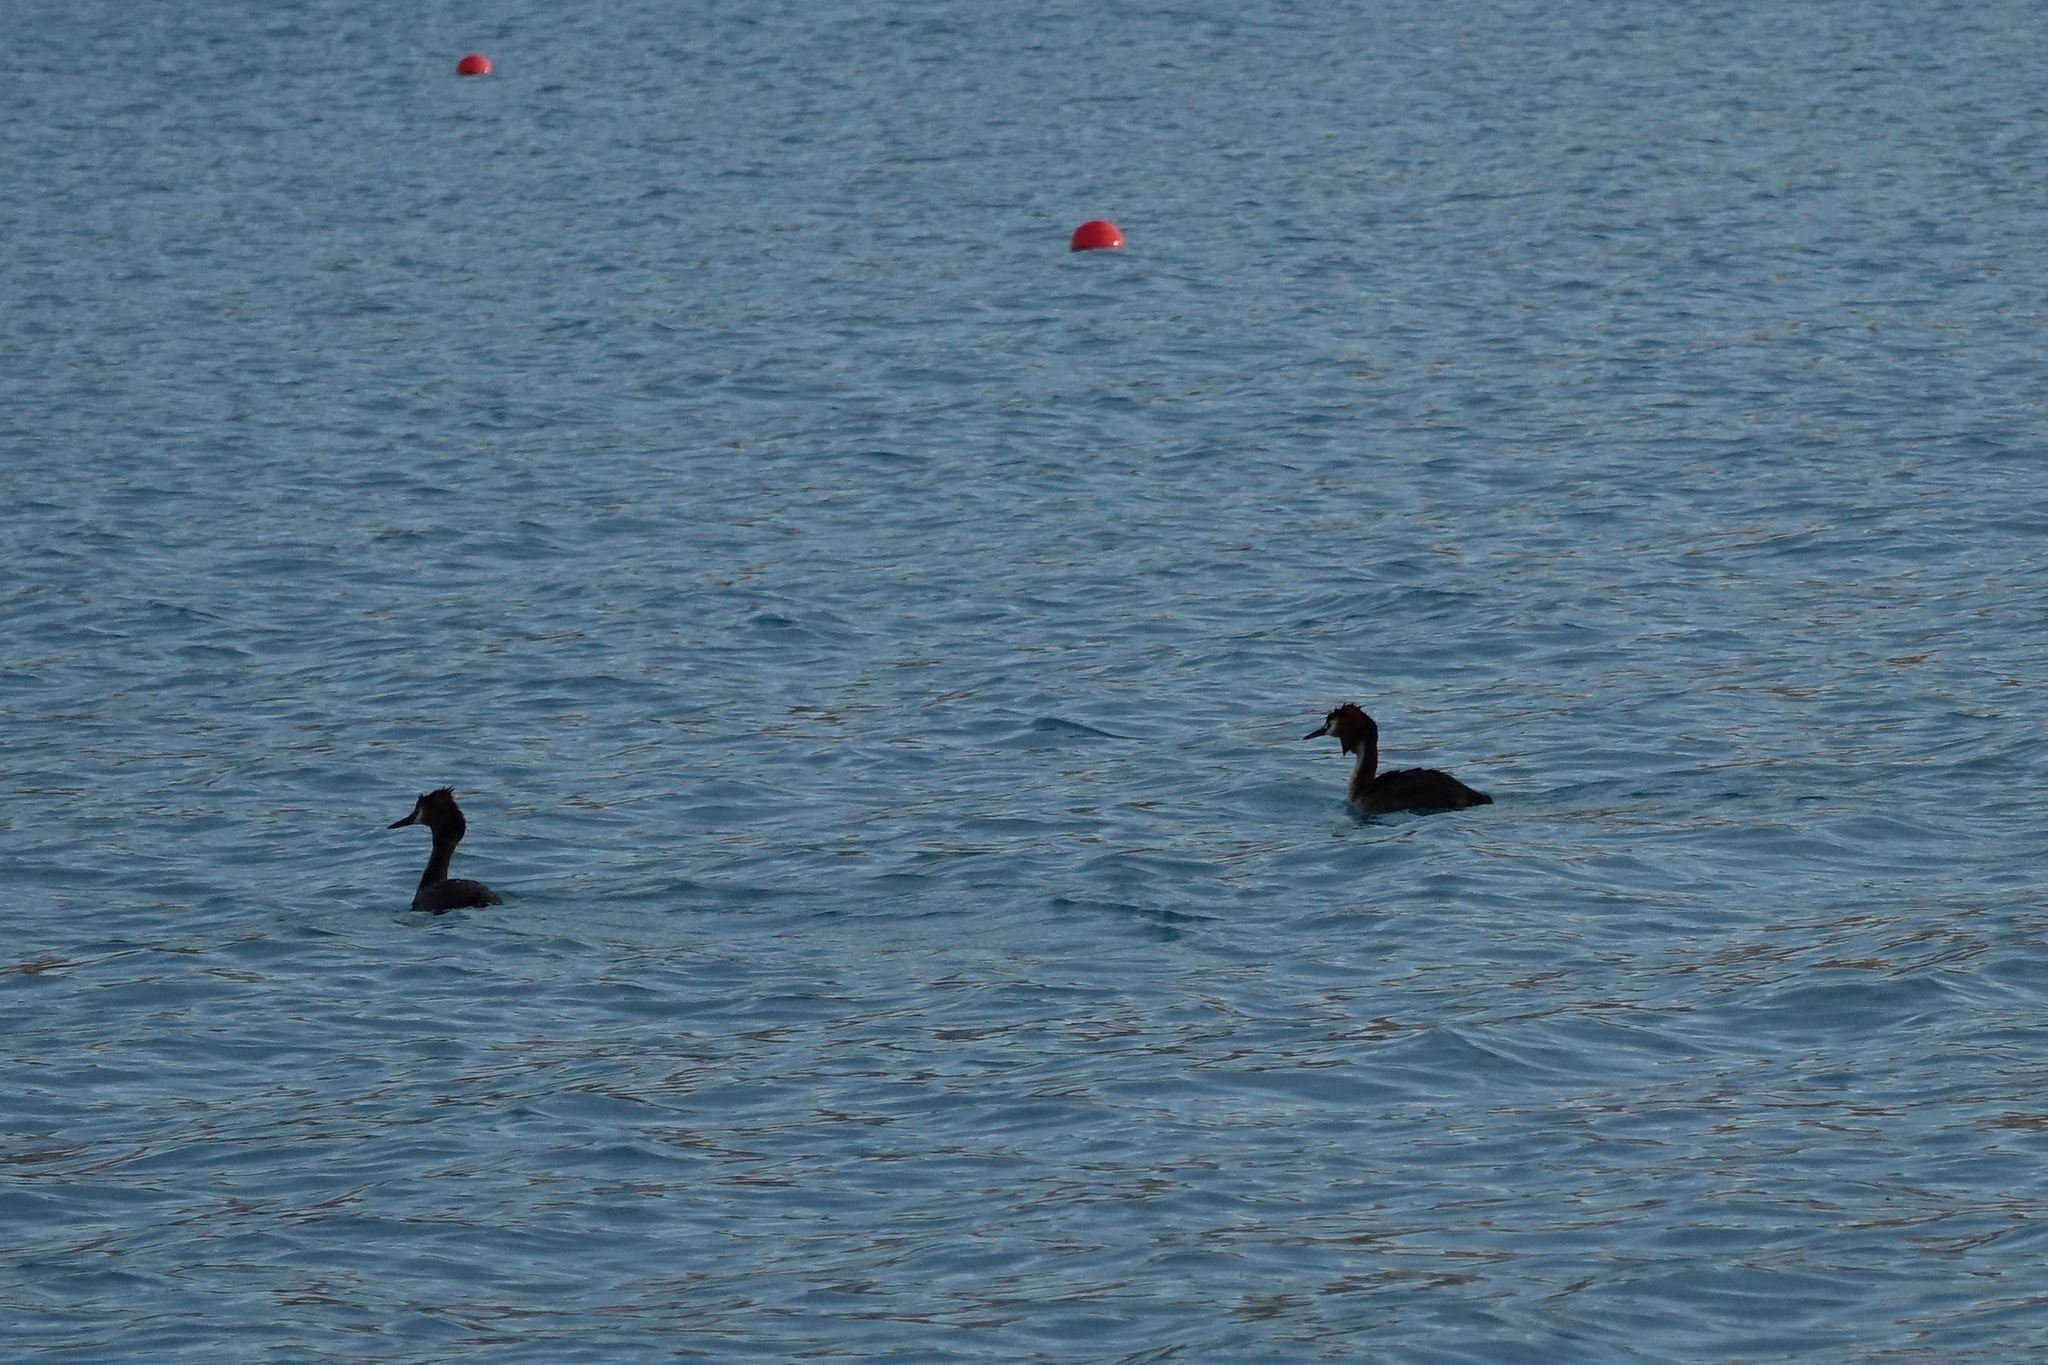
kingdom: Animalia
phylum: Chordata
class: Aves
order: Podicipediformes
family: Podicipedidae
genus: Podiceps
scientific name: Podiceps cristatus
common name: Great crested grebe
